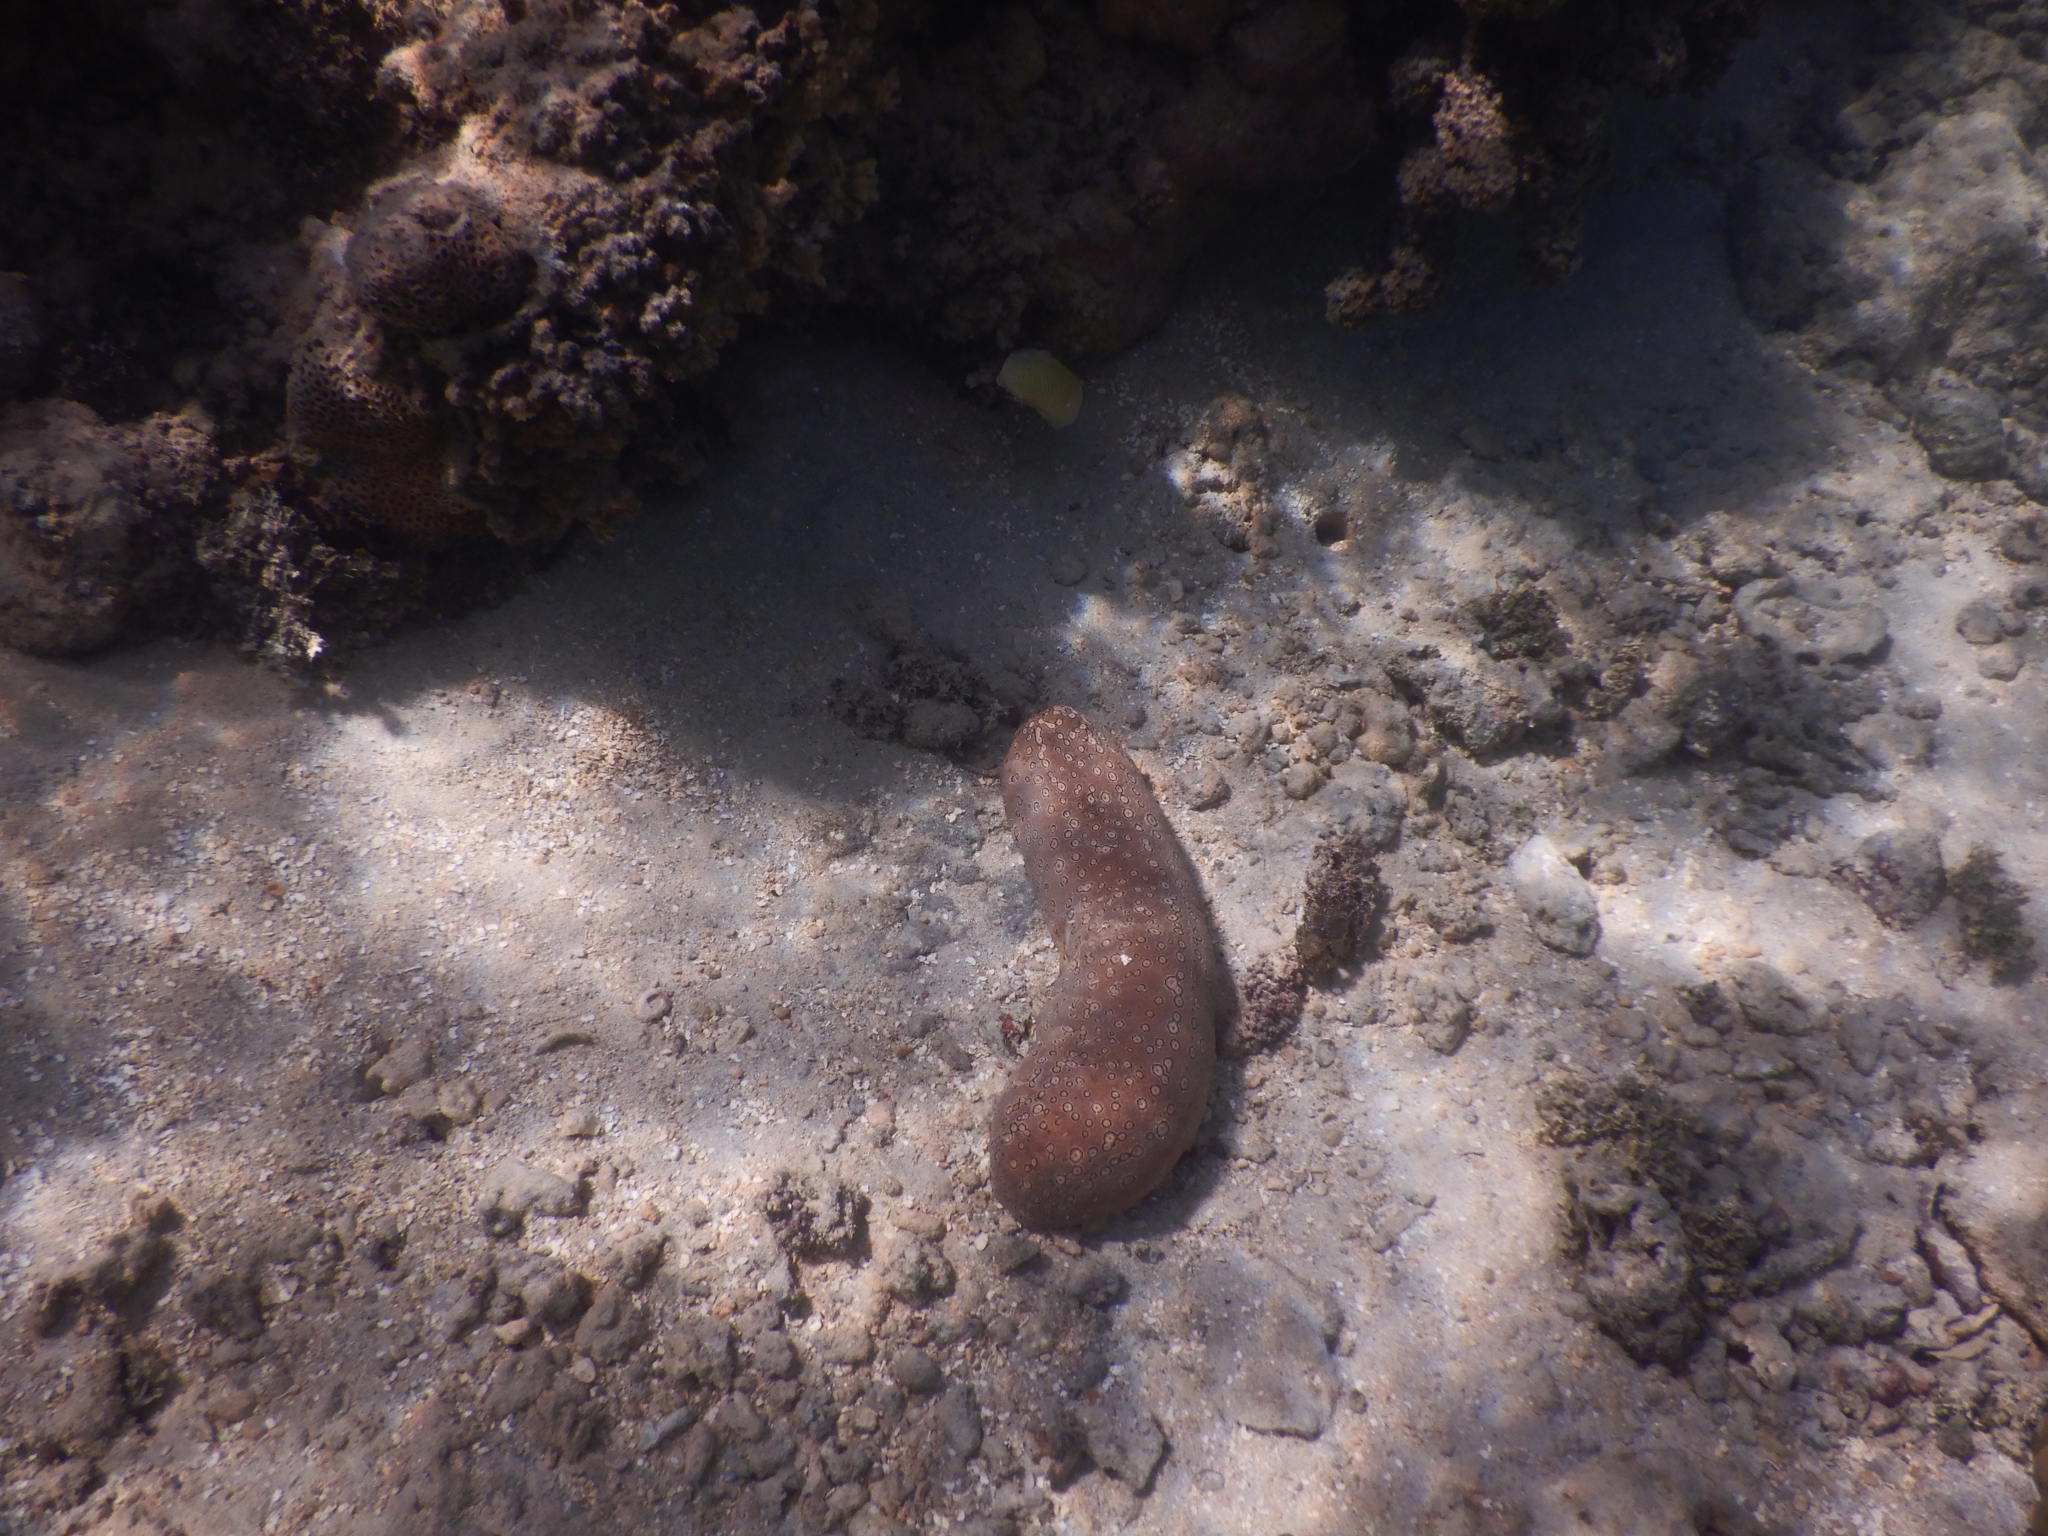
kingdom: Animalia
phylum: Echinodermata
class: Holothuroidea
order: Holothuriida
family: Holothuriidae
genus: Bohadschia
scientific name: Bohadschia argus
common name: Leopardfish
